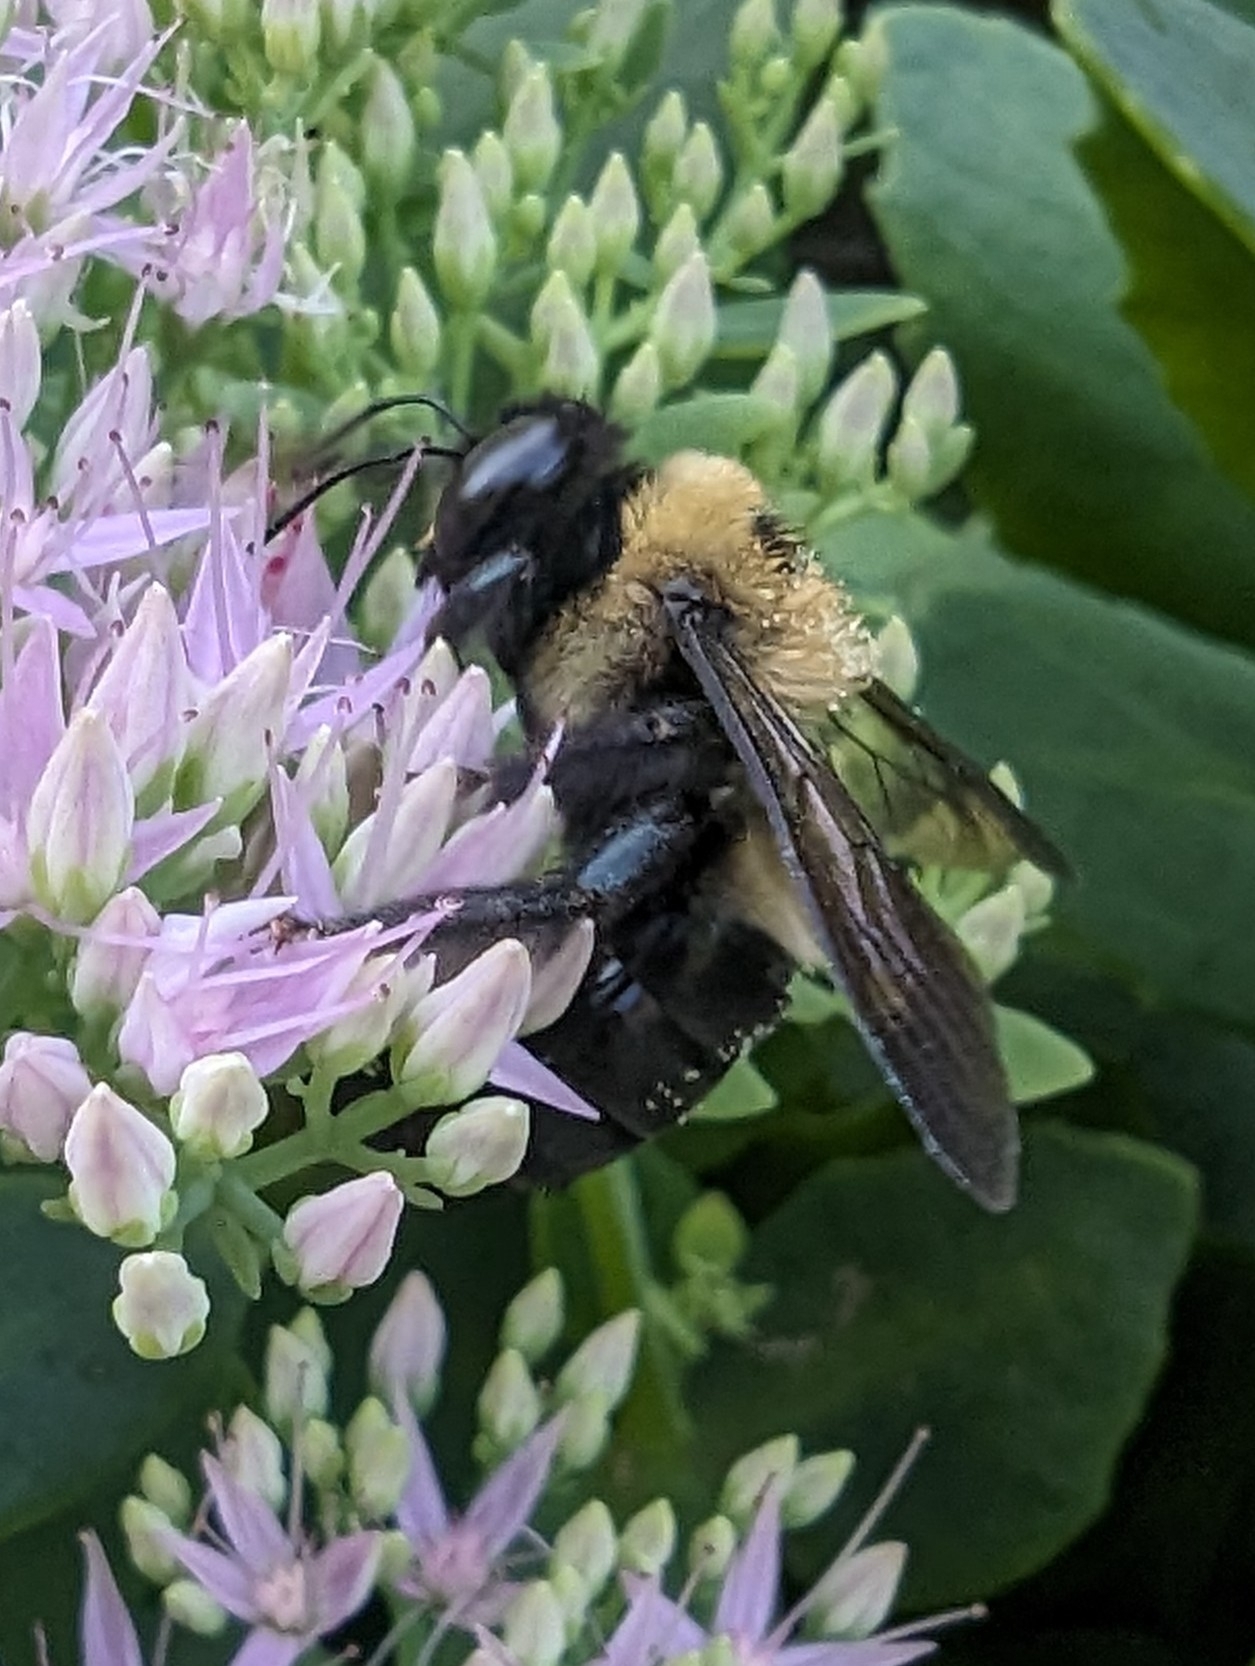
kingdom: Animalia
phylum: Arthropoda
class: Insecta
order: Hymenoptera
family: Apidae
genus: Xylocopa
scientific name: Xylocopa virginica
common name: Carpenter bee
